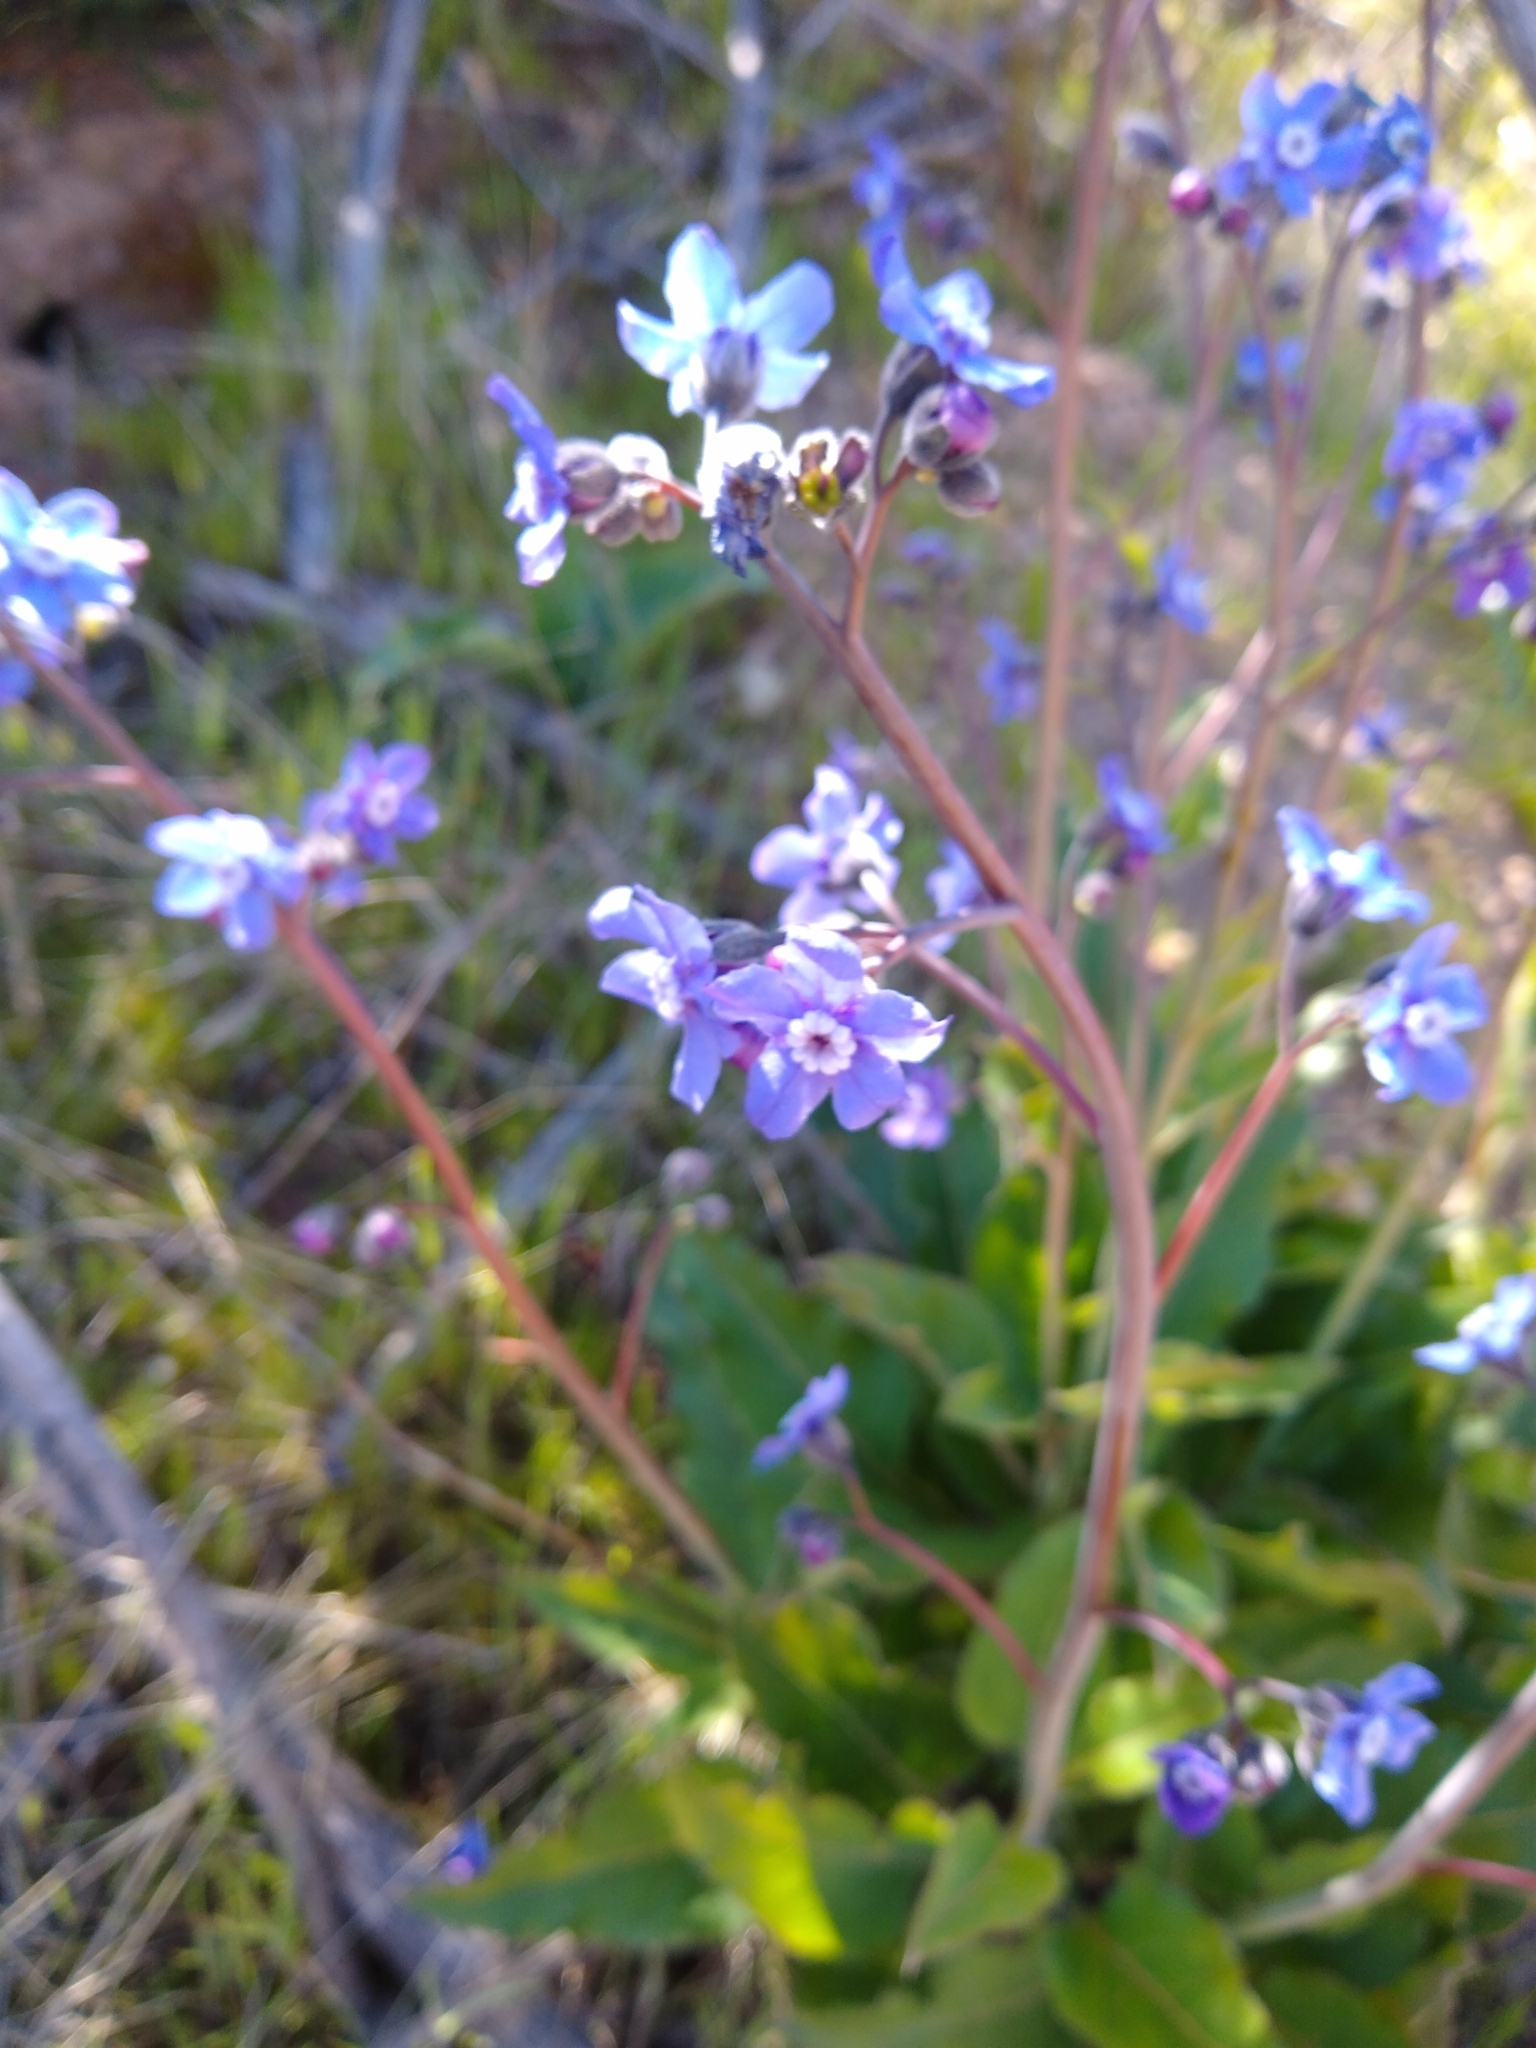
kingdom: Plantae
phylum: Tracheophyta
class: Magnoliopsida
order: Boraginales
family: Boraginaceae
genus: Adelinia
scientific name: Adelinia grande
